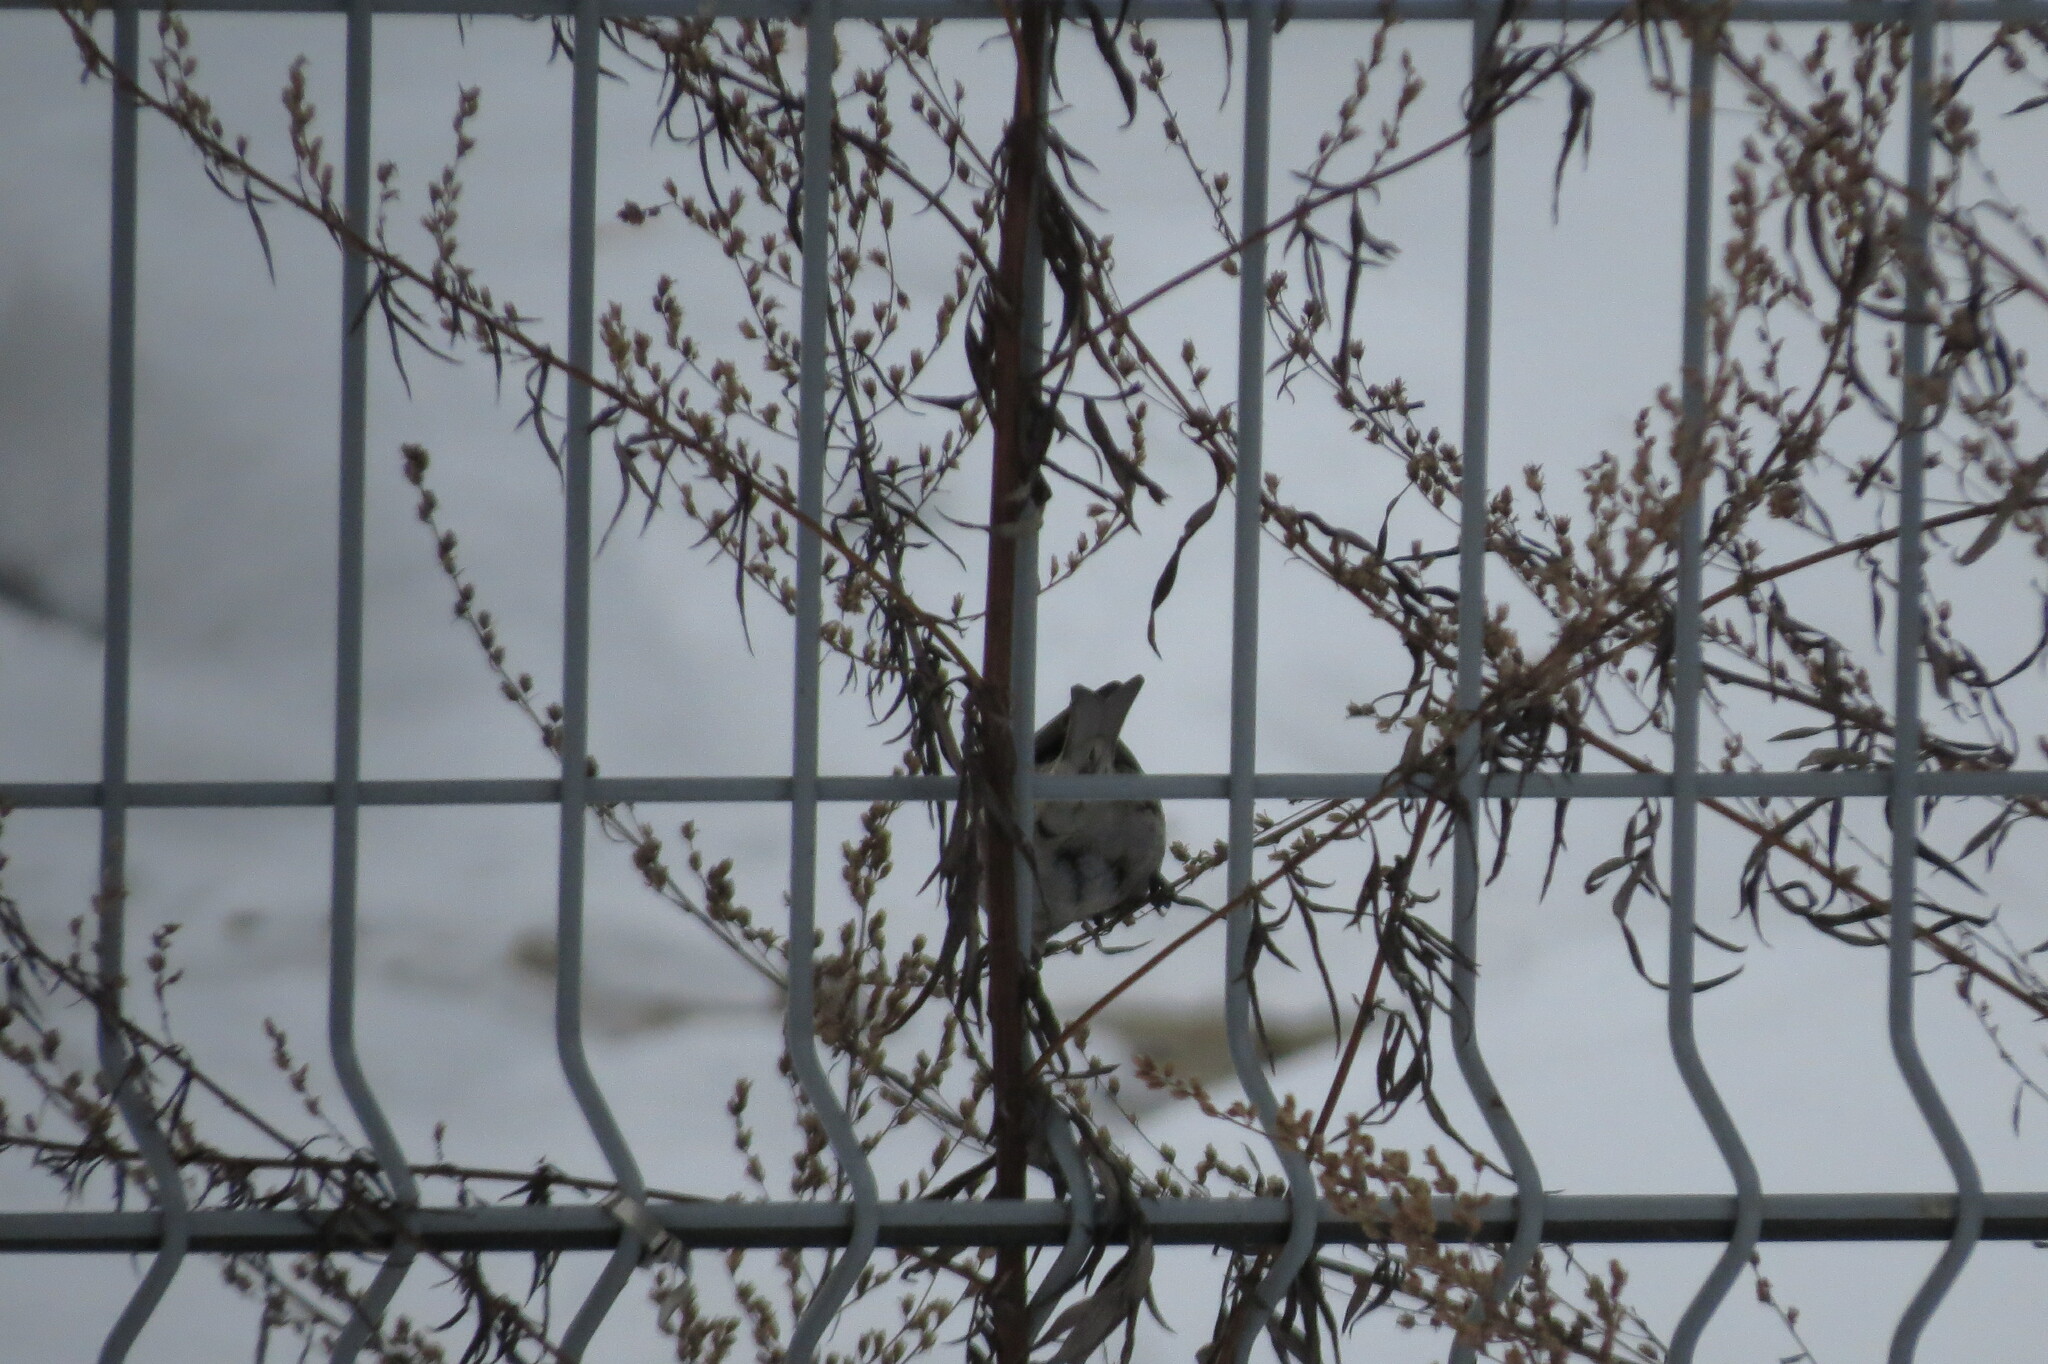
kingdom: Animalia
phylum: Chordata
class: Aves
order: Passeriformes
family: Fringillidae
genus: Acanthis
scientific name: Acanthis flammea
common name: Common redpoll
